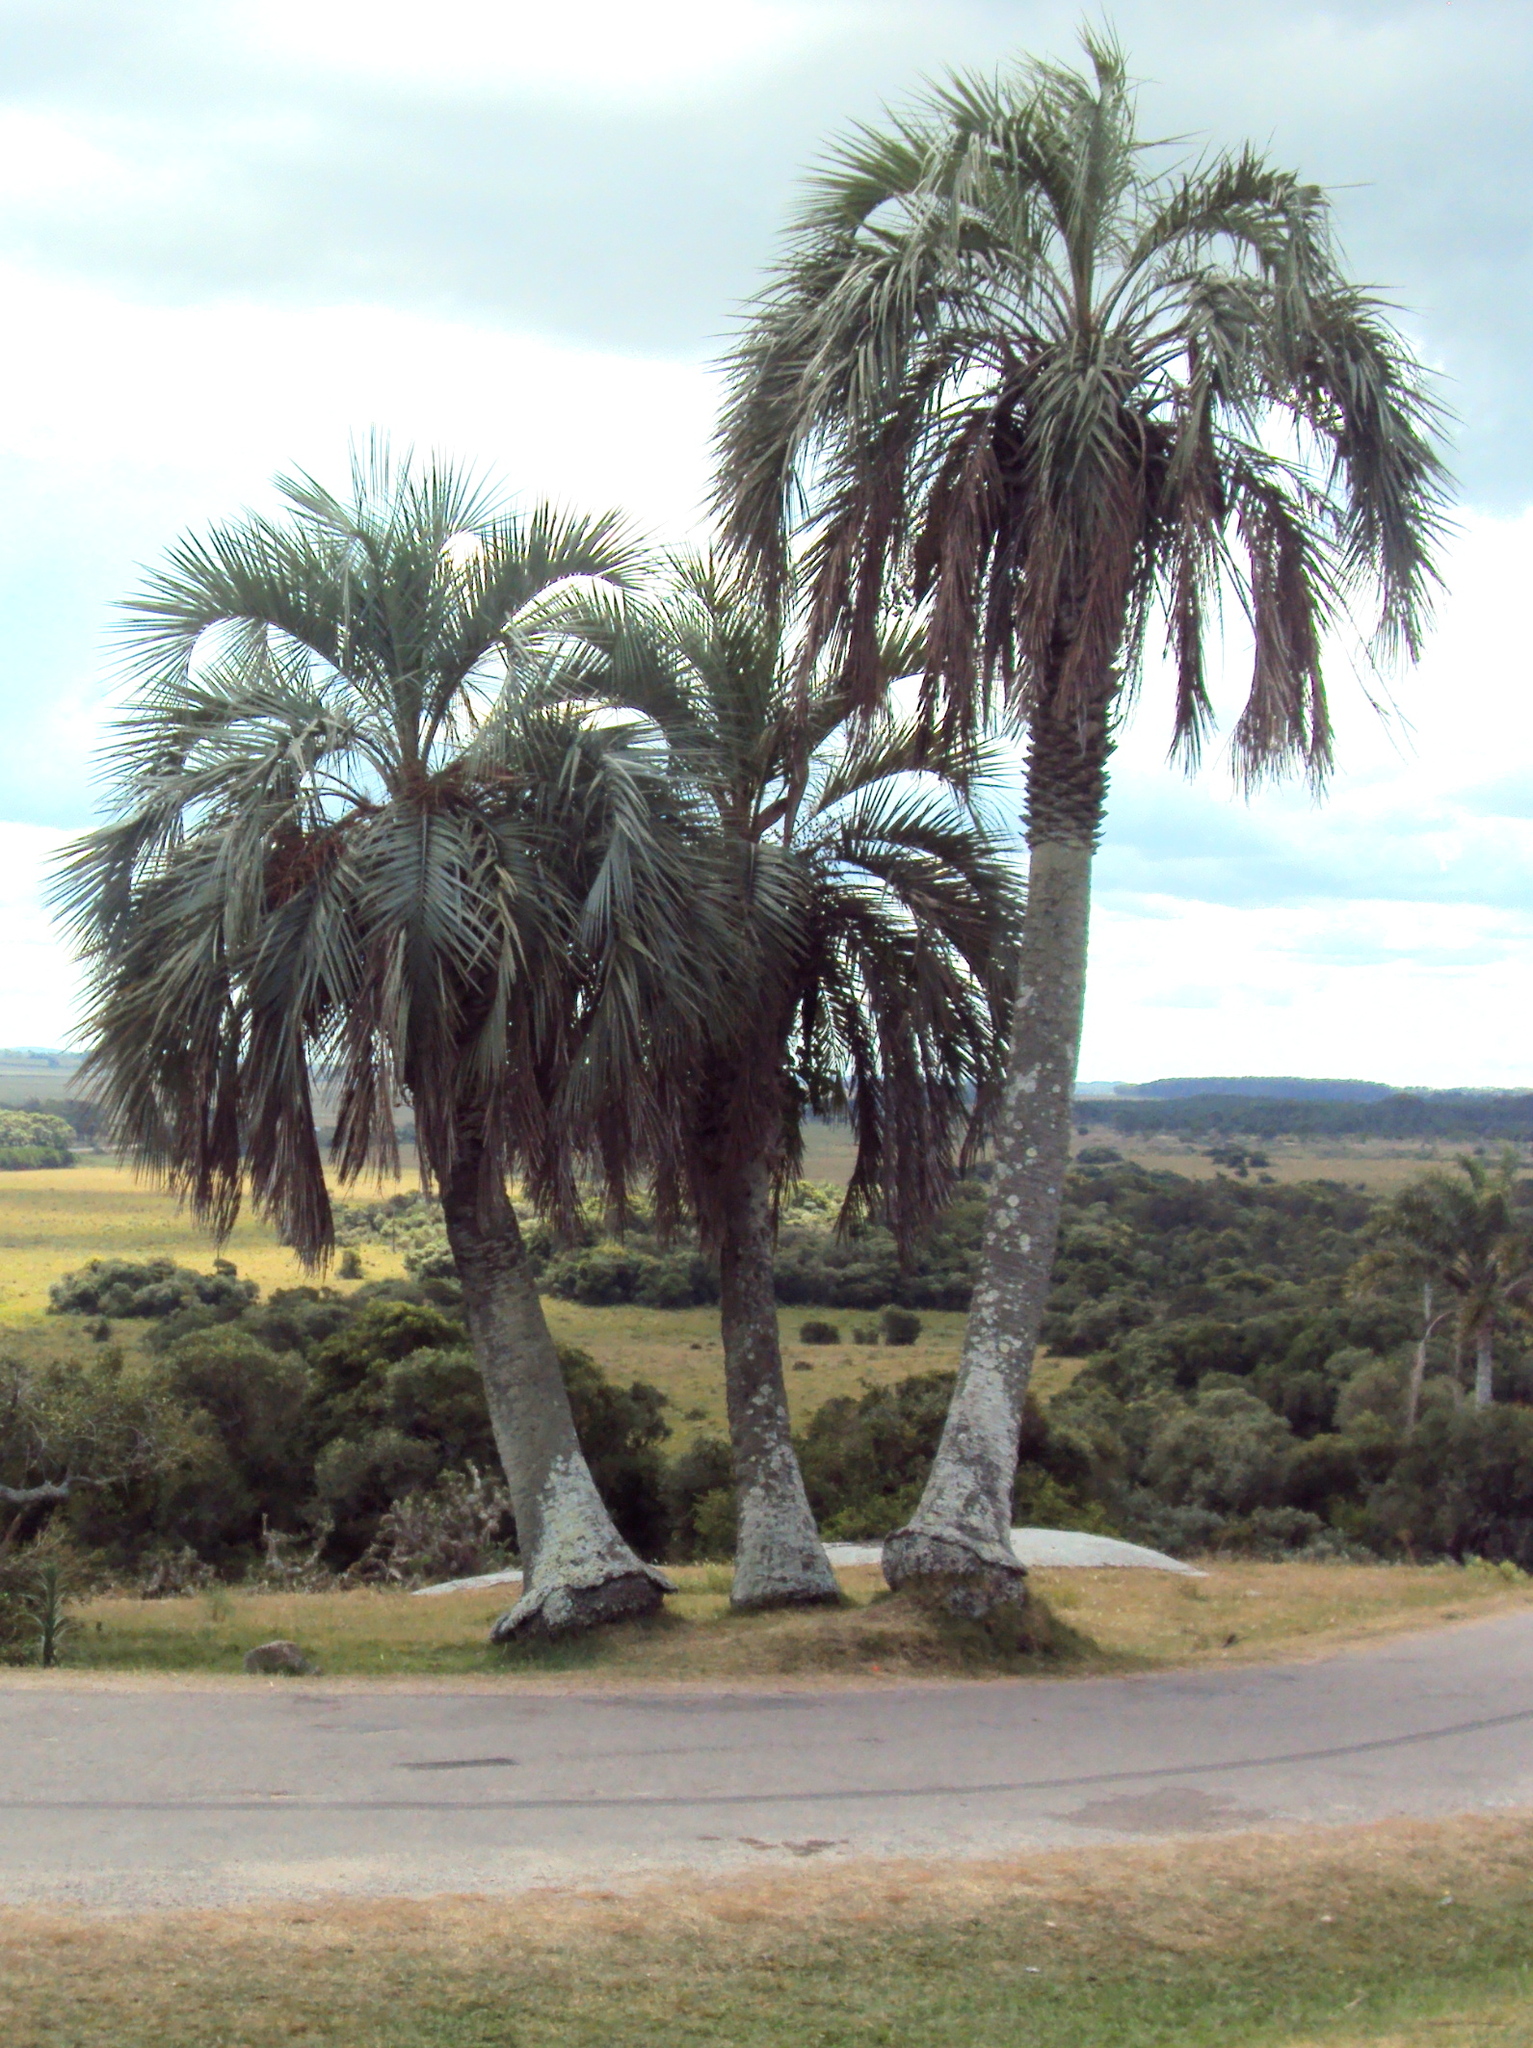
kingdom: Plantae
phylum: Tracheophyta
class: Liliopsida
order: Arecales
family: Arecaceae
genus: Butia
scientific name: Butia odorata
